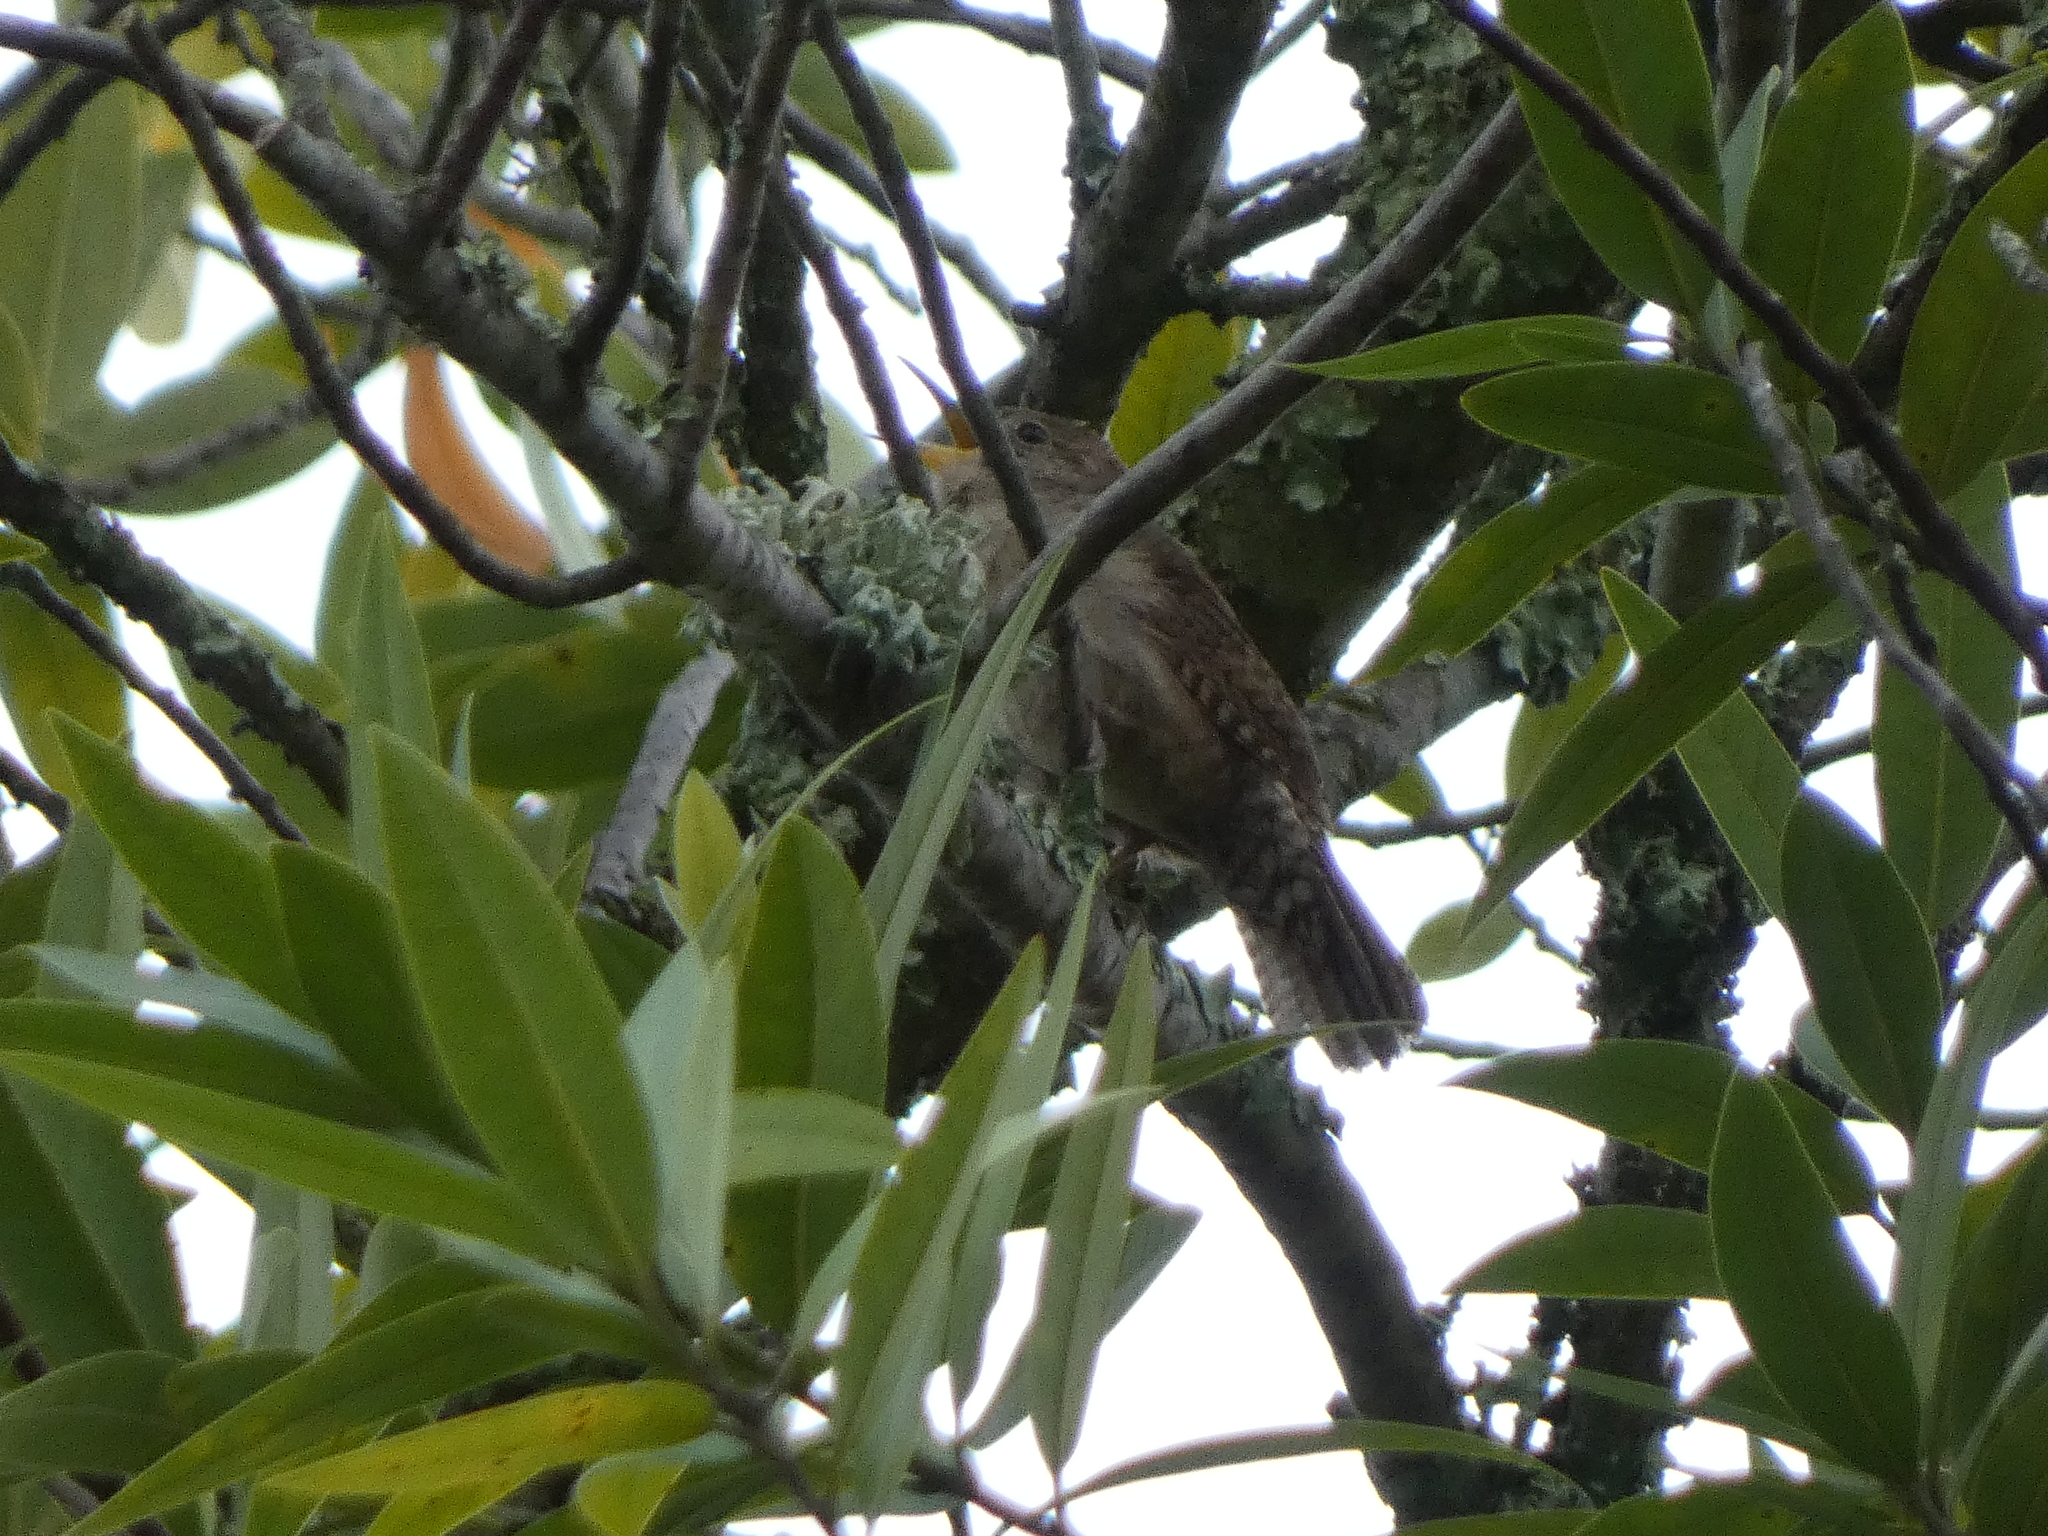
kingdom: Animalia
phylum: Chordata
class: Aves
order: Passeriformes
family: Troglodytidae
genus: Troglodytes
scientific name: Troglodytes aedon
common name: House wren
